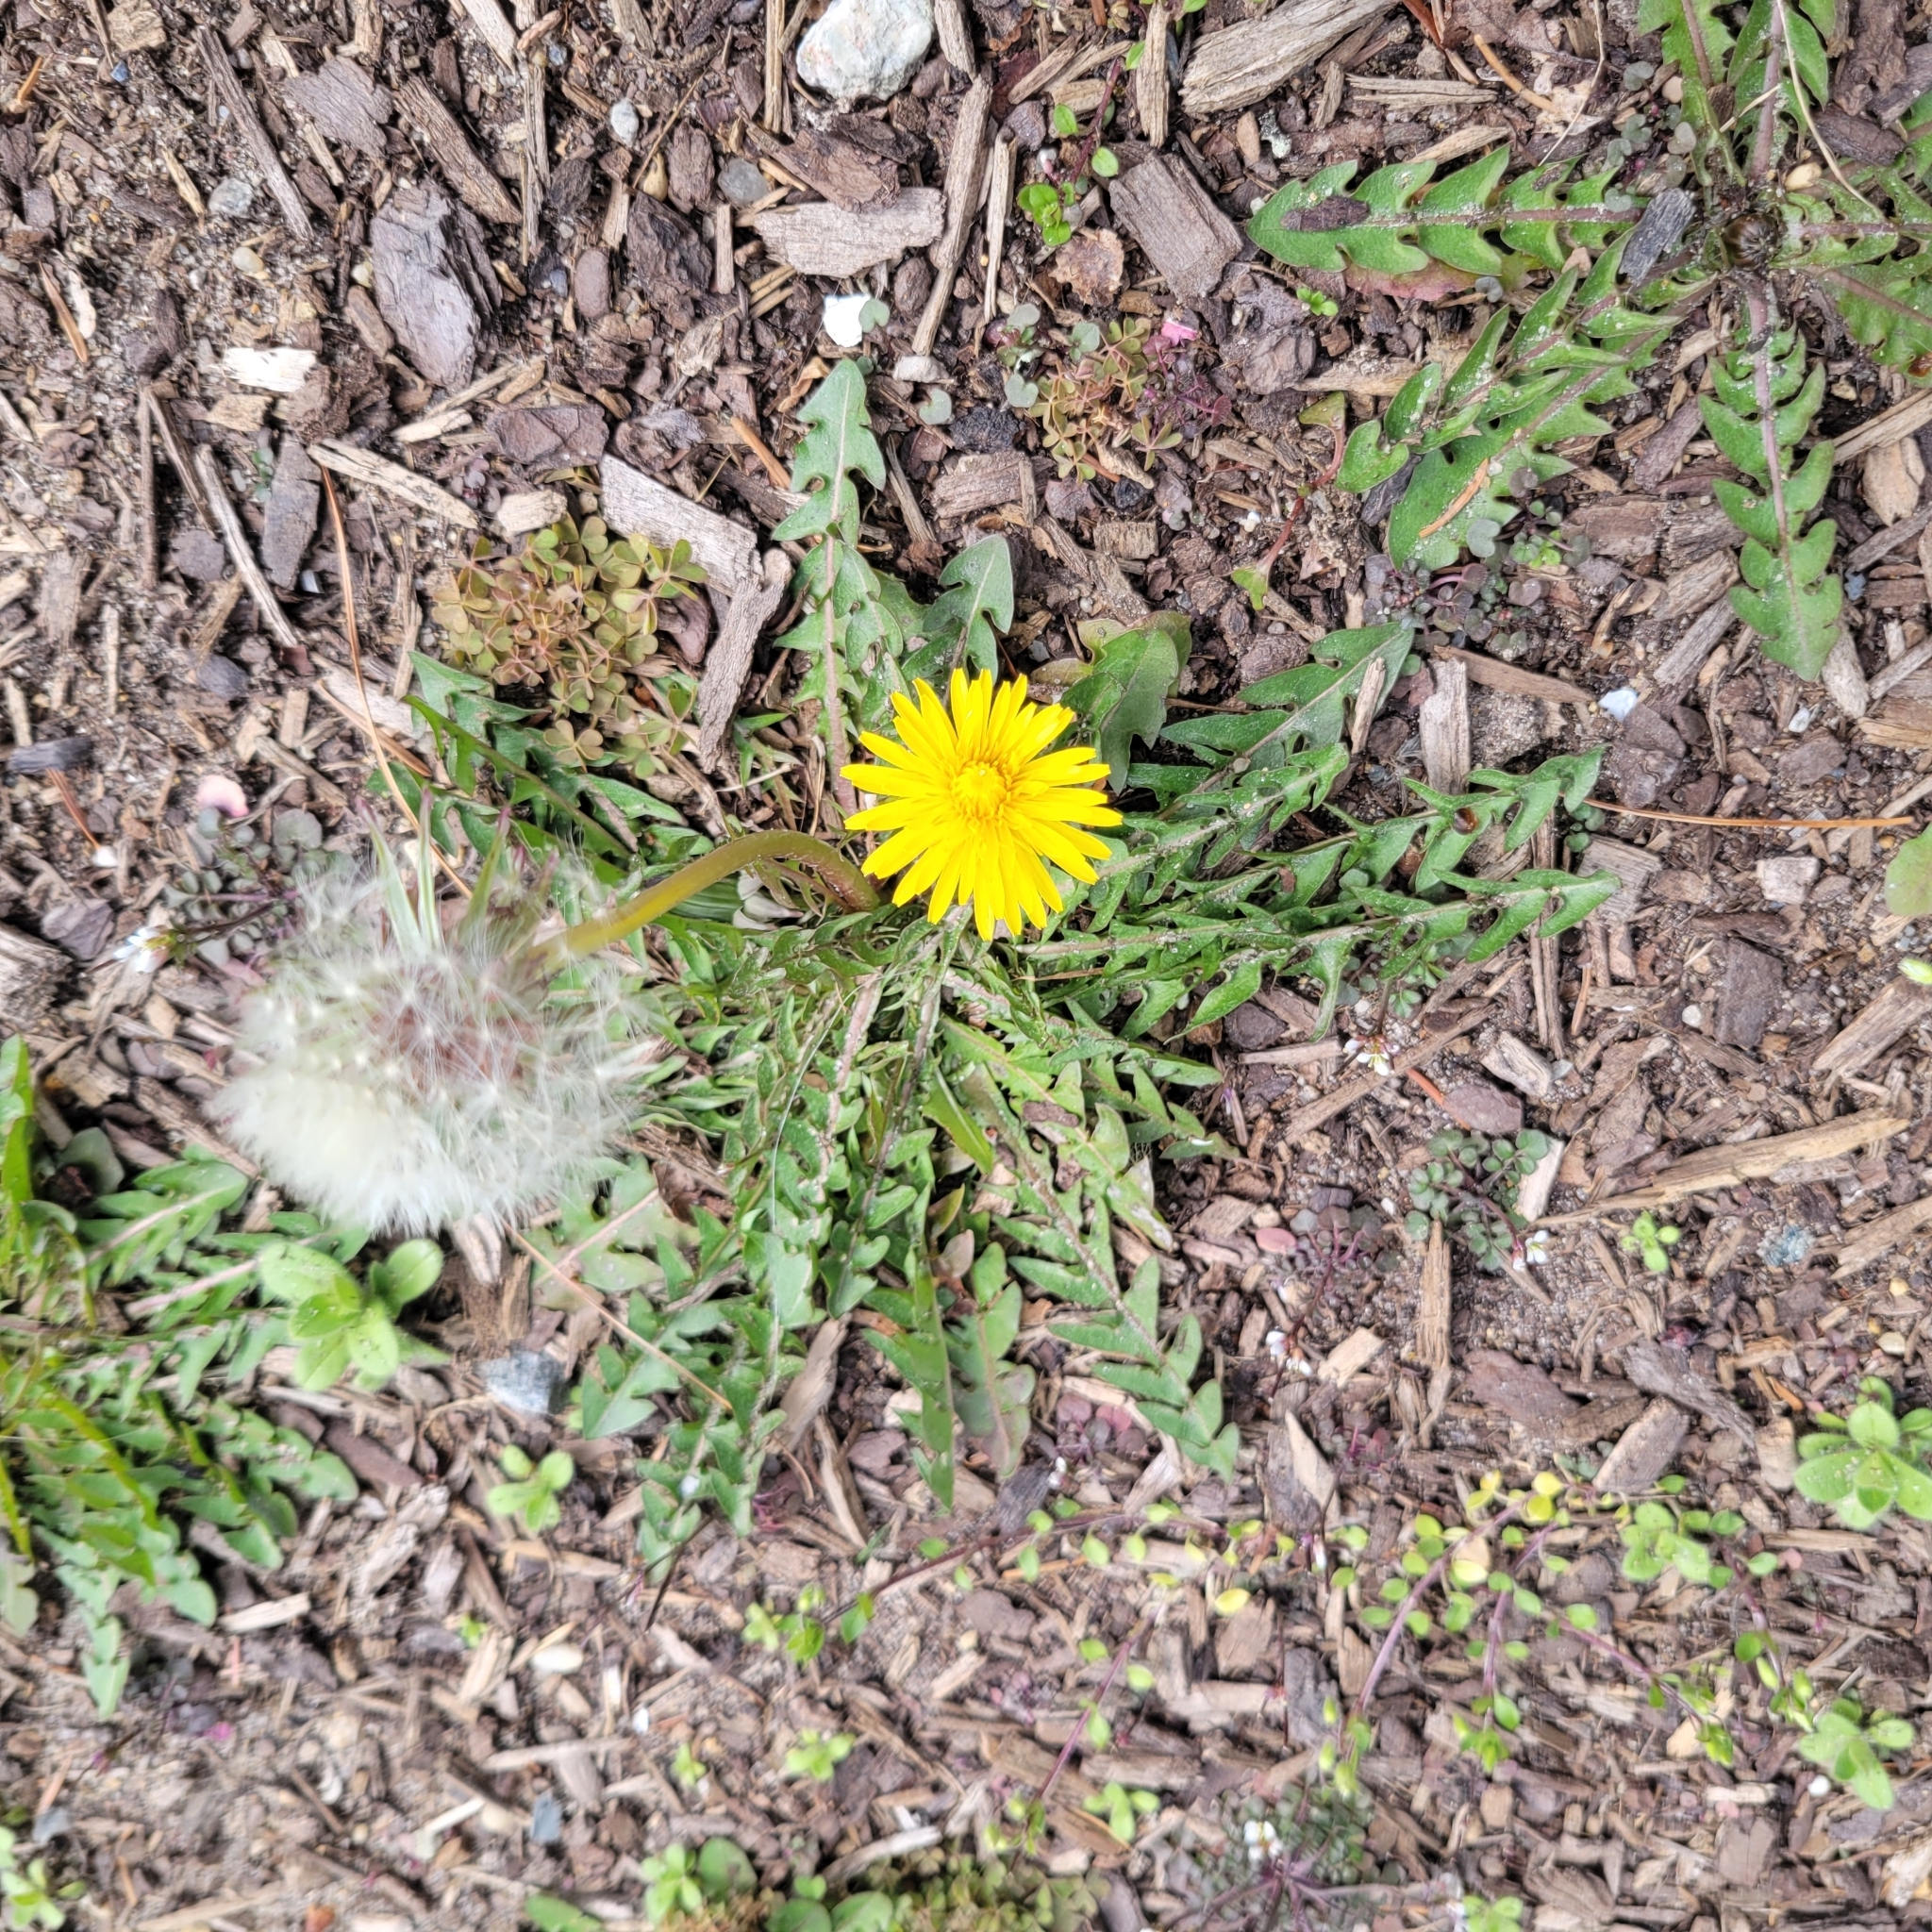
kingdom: Plantae
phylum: Tracheophyta
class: Magnoliopsida
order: Asterales
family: Asteraceae
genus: Taraxacum
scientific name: Taraxacum officinale
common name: Common dandelion
